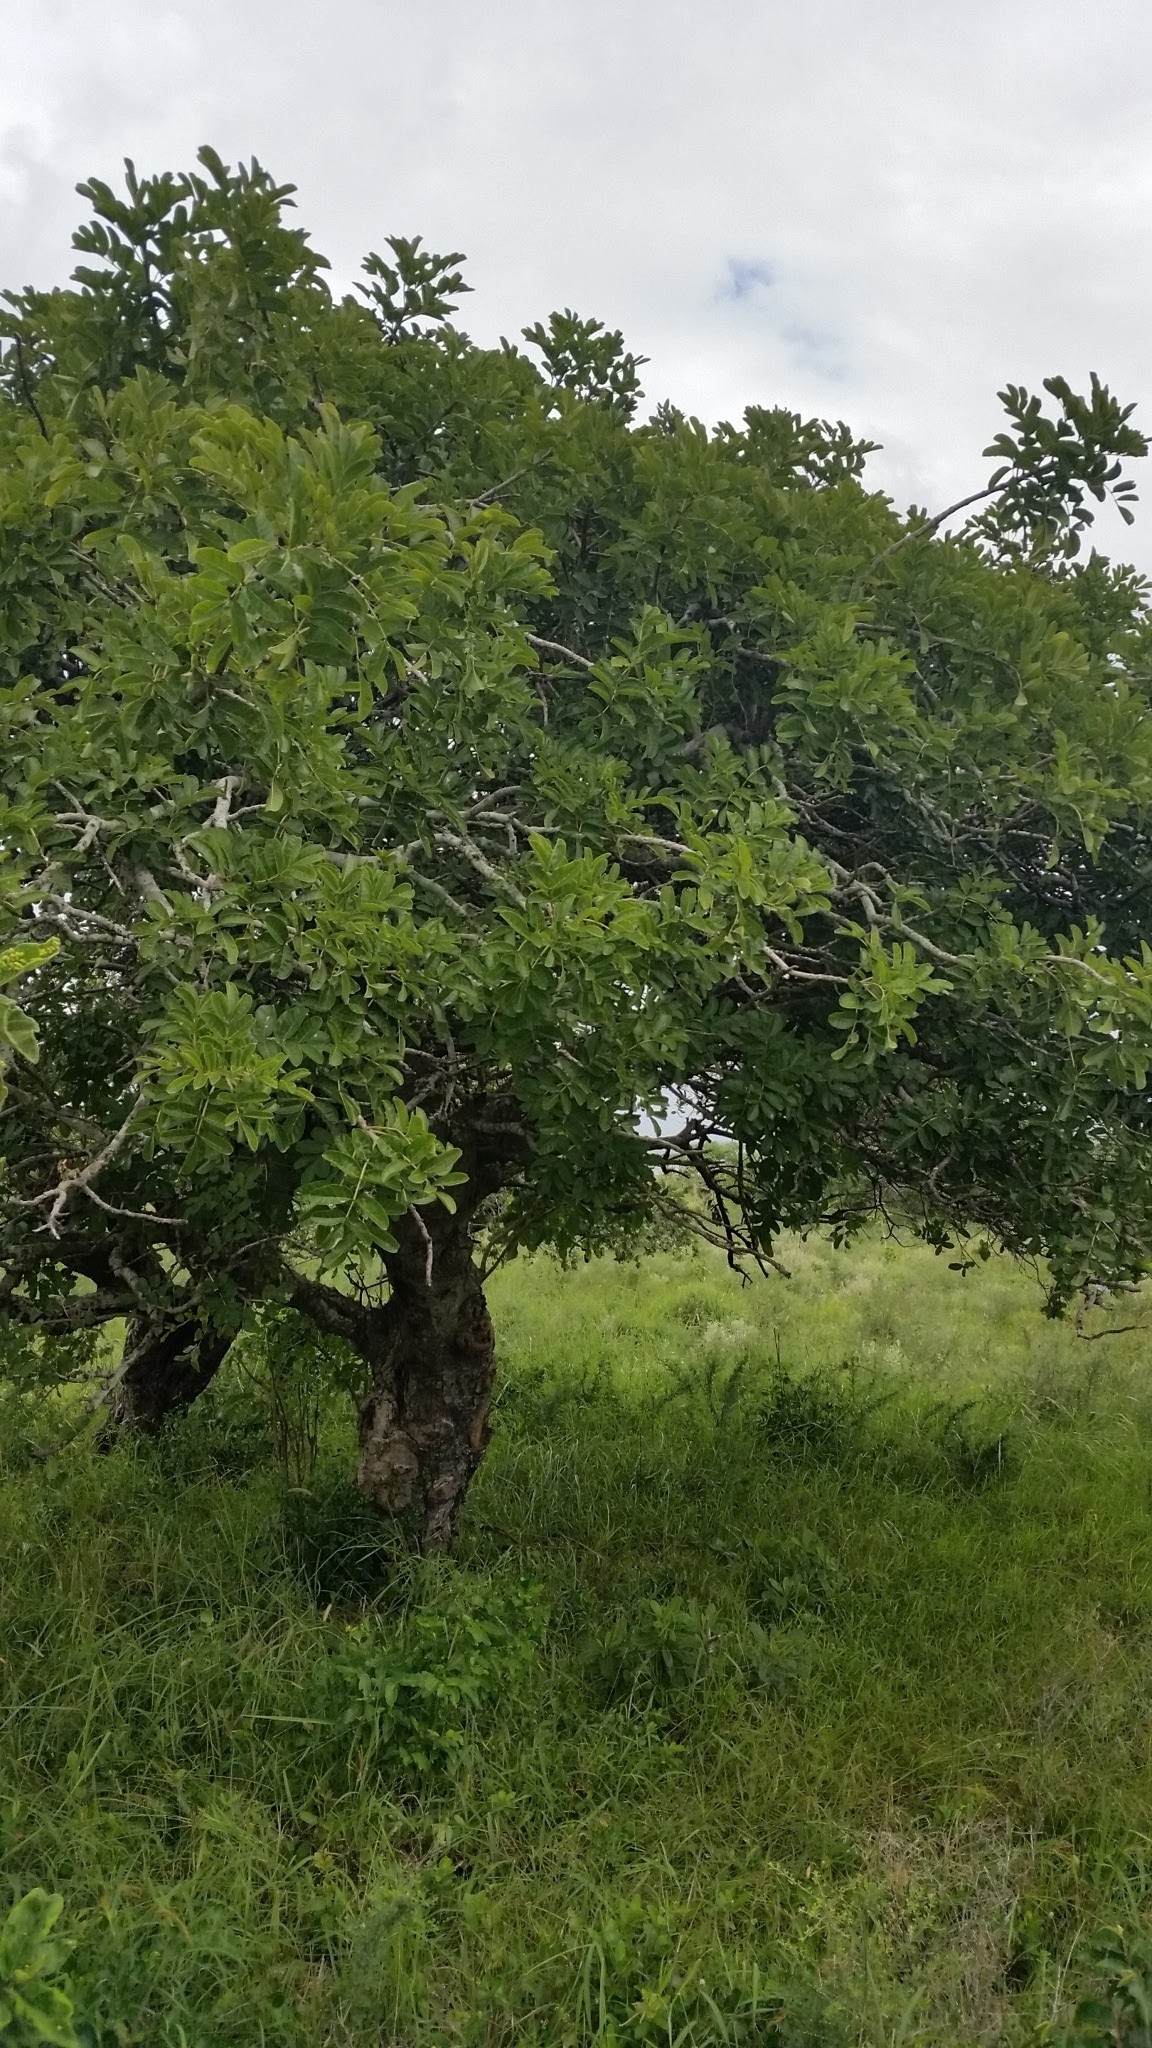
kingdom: Plantae
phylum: Tracheophyta
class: Magnoliopsida
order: Lamiales
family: Bignoniaceae
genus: Kigelia
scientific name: Kigelia africana
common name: Sausage tree
